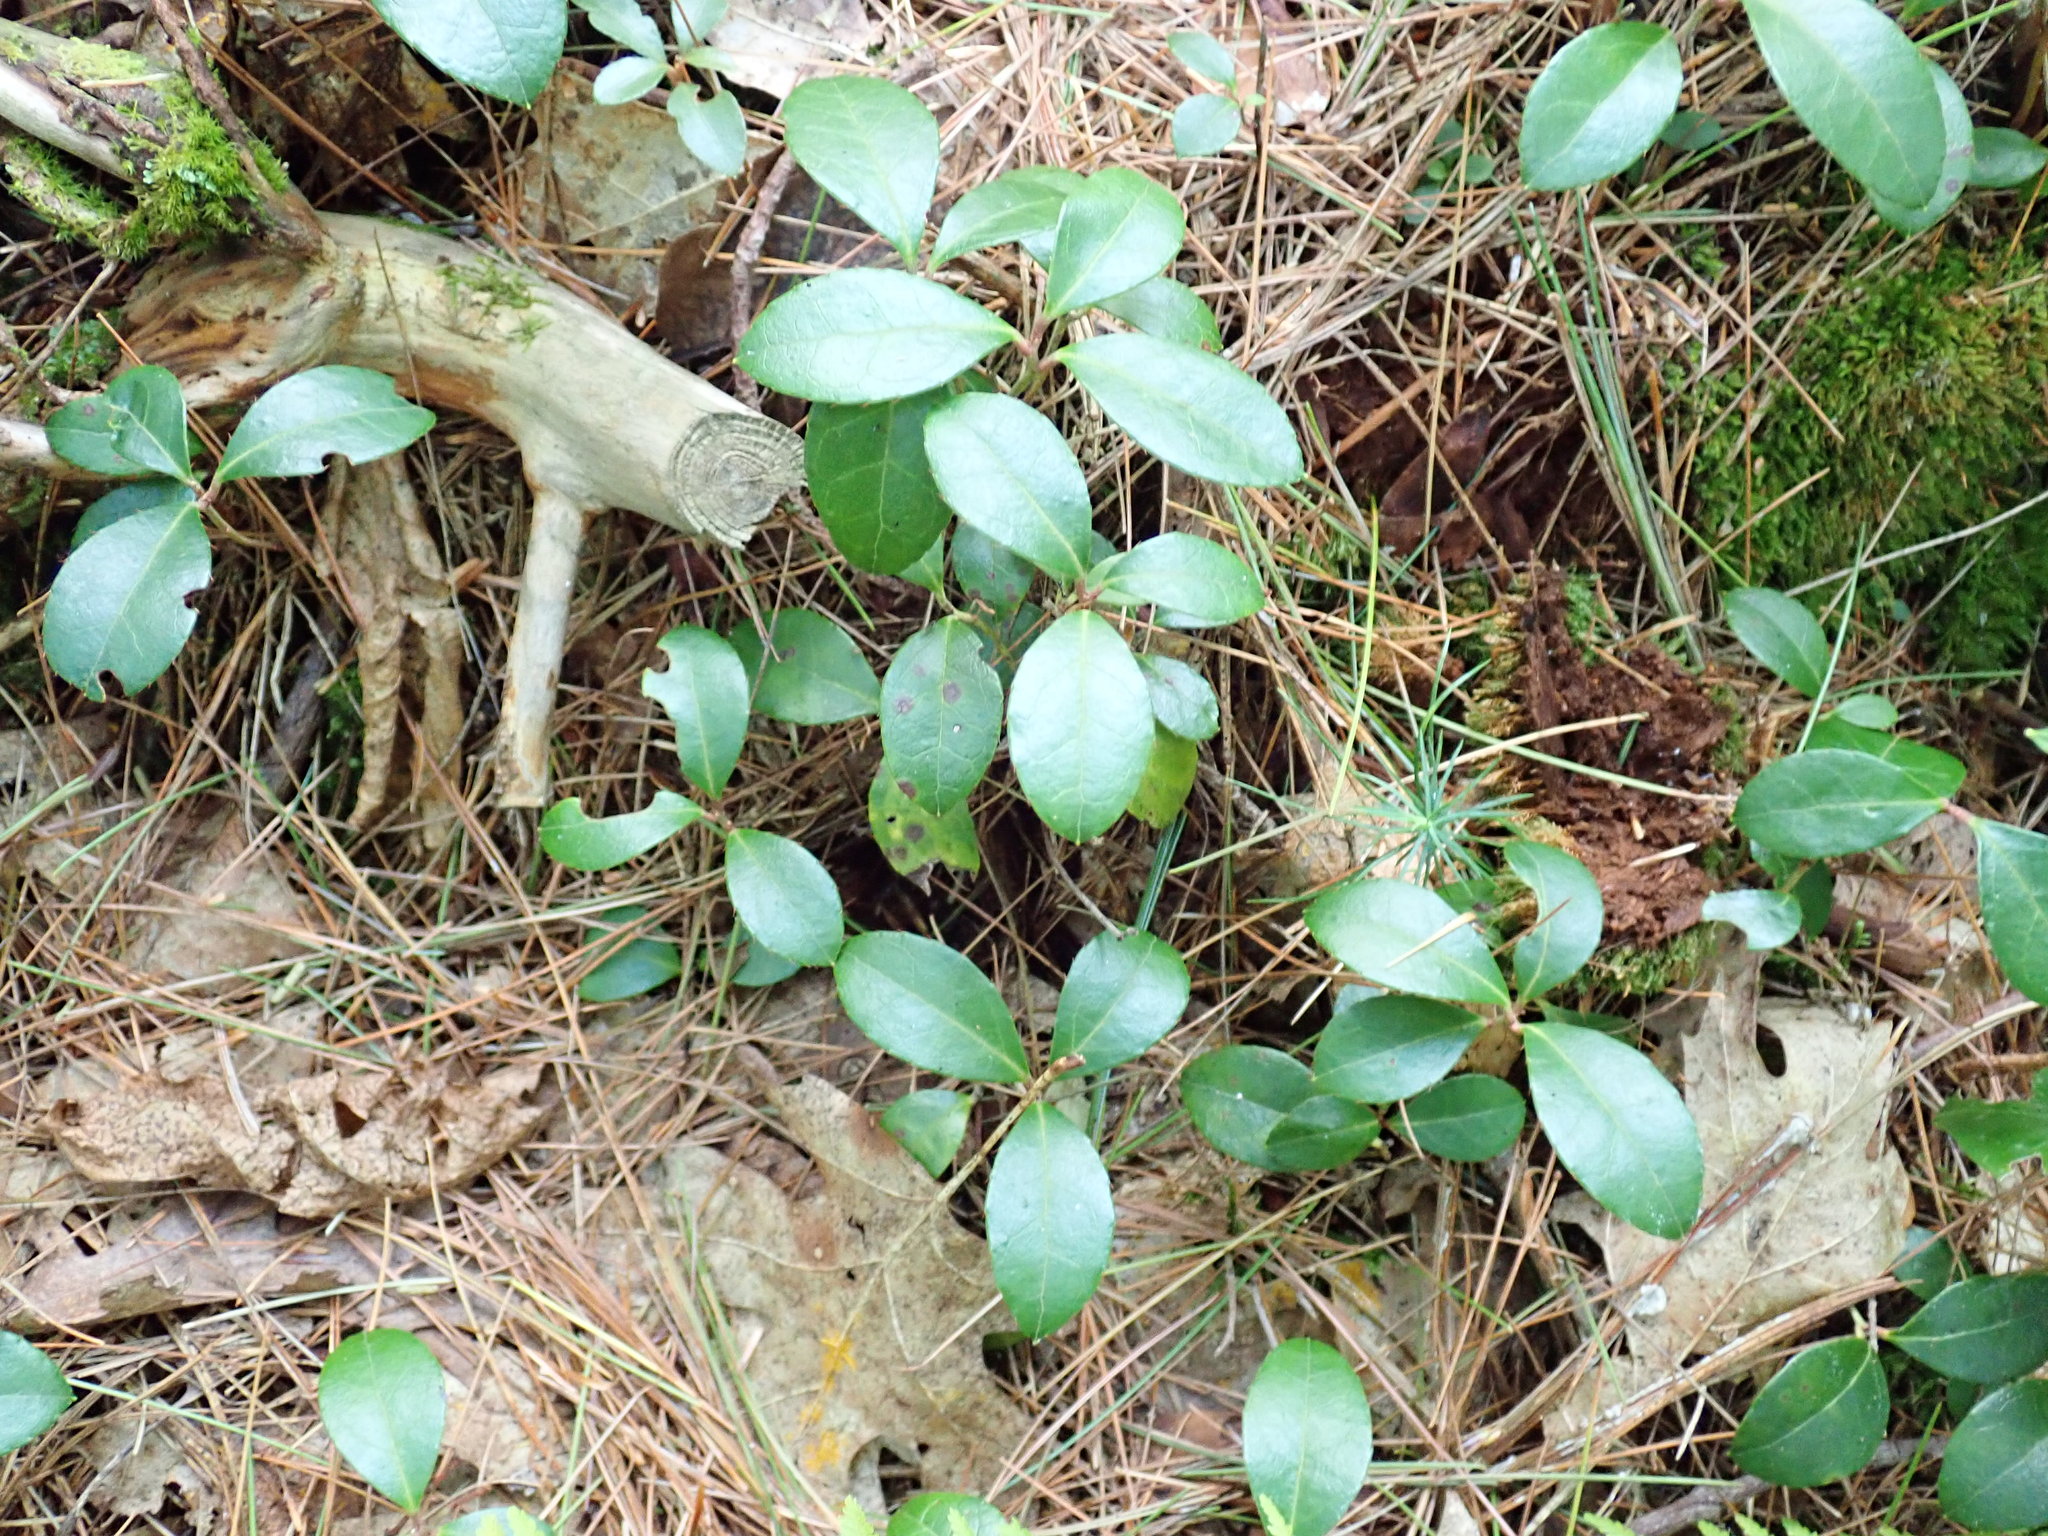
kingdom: Plantae
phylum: Tracheophyta
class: Magnoliopsida
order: Ericales
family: Ericaceae
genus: Gaultheria
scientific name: Gaultheria procumbens
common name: Checkerberry
